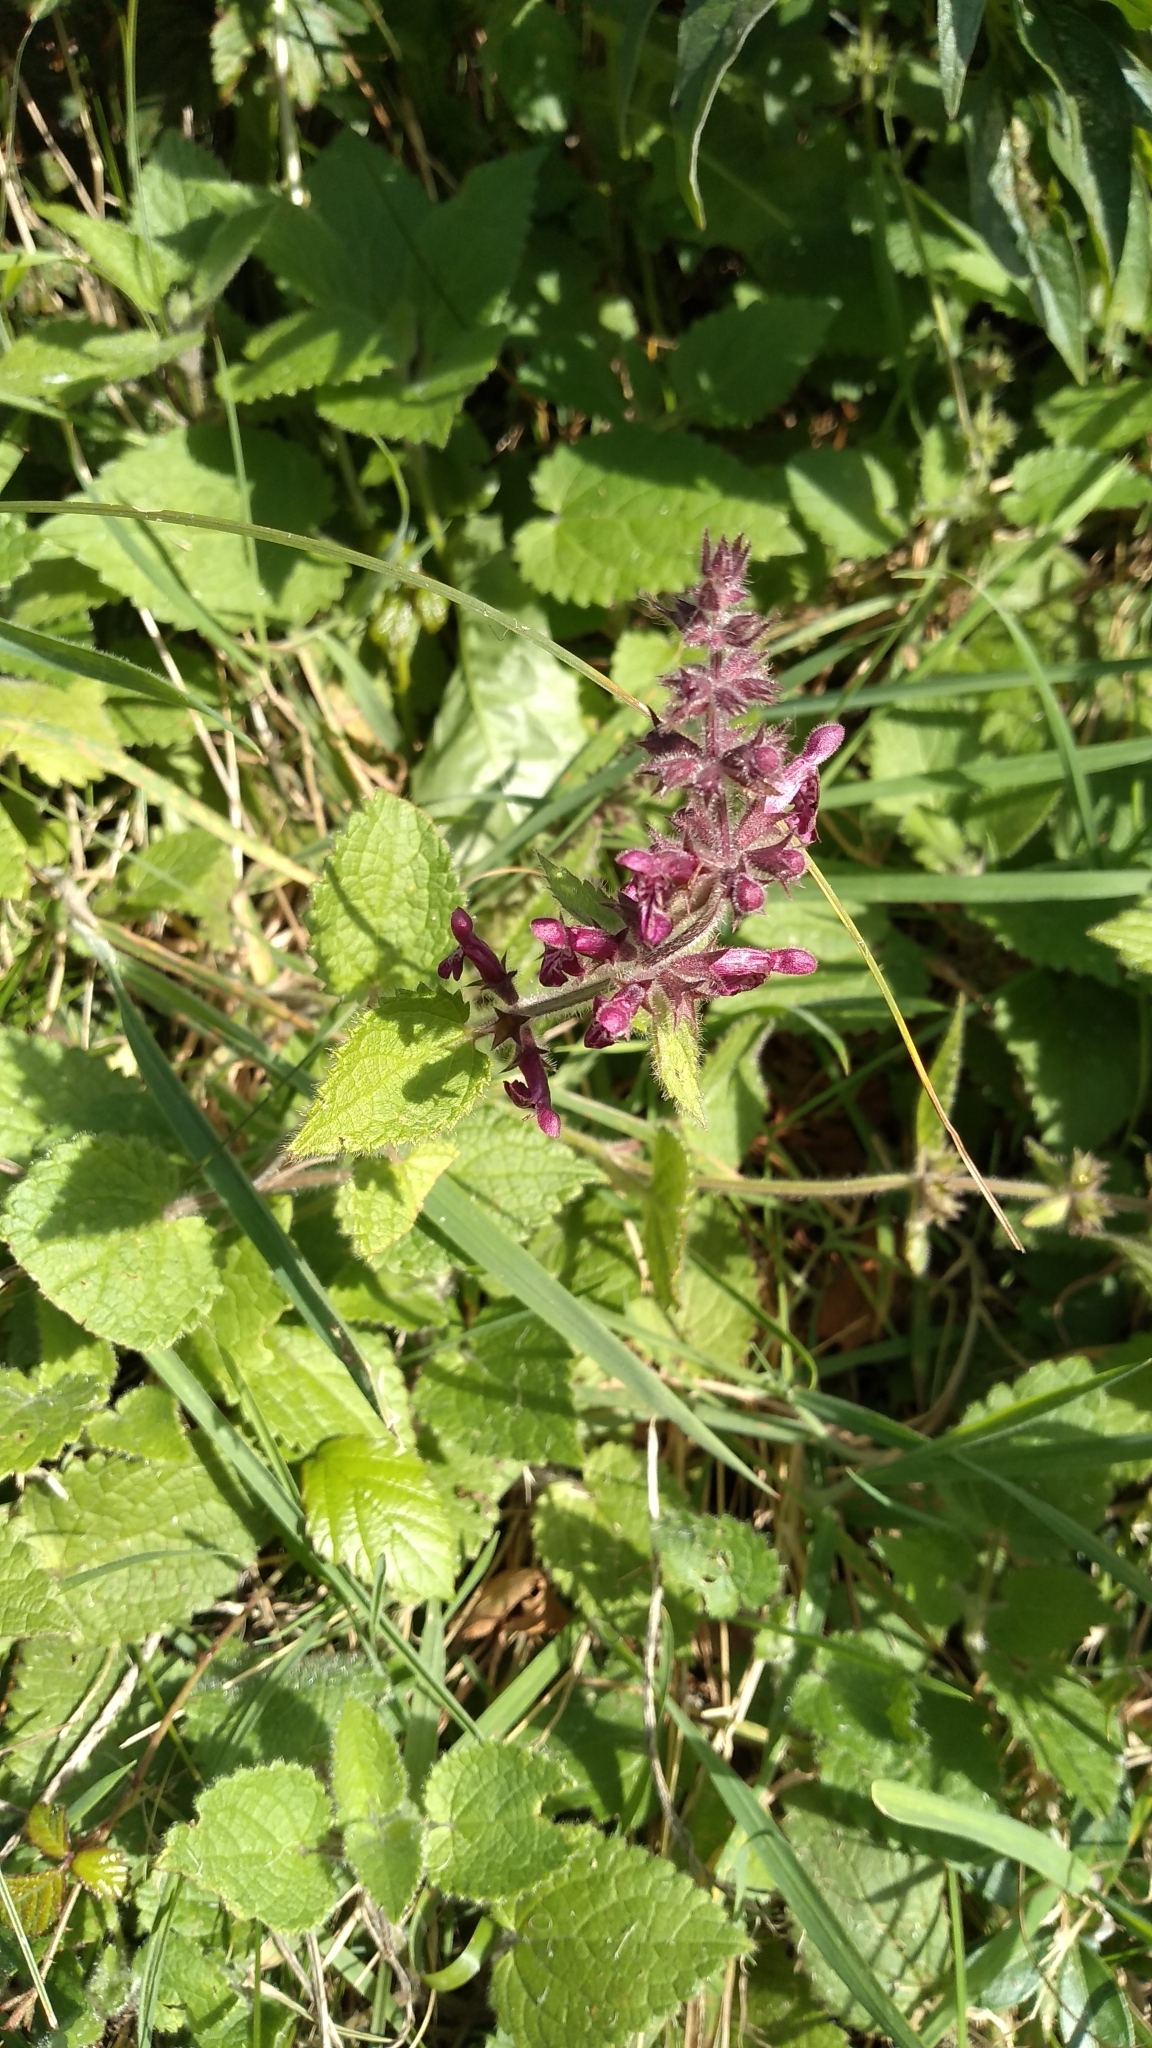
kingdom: Plantae
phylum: Tracheophyta
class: Magnoliopsida
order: Lamiales
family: Lamiaceae
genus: Stachys
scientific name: Stachys sylvatica
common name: Hedge woundwort
